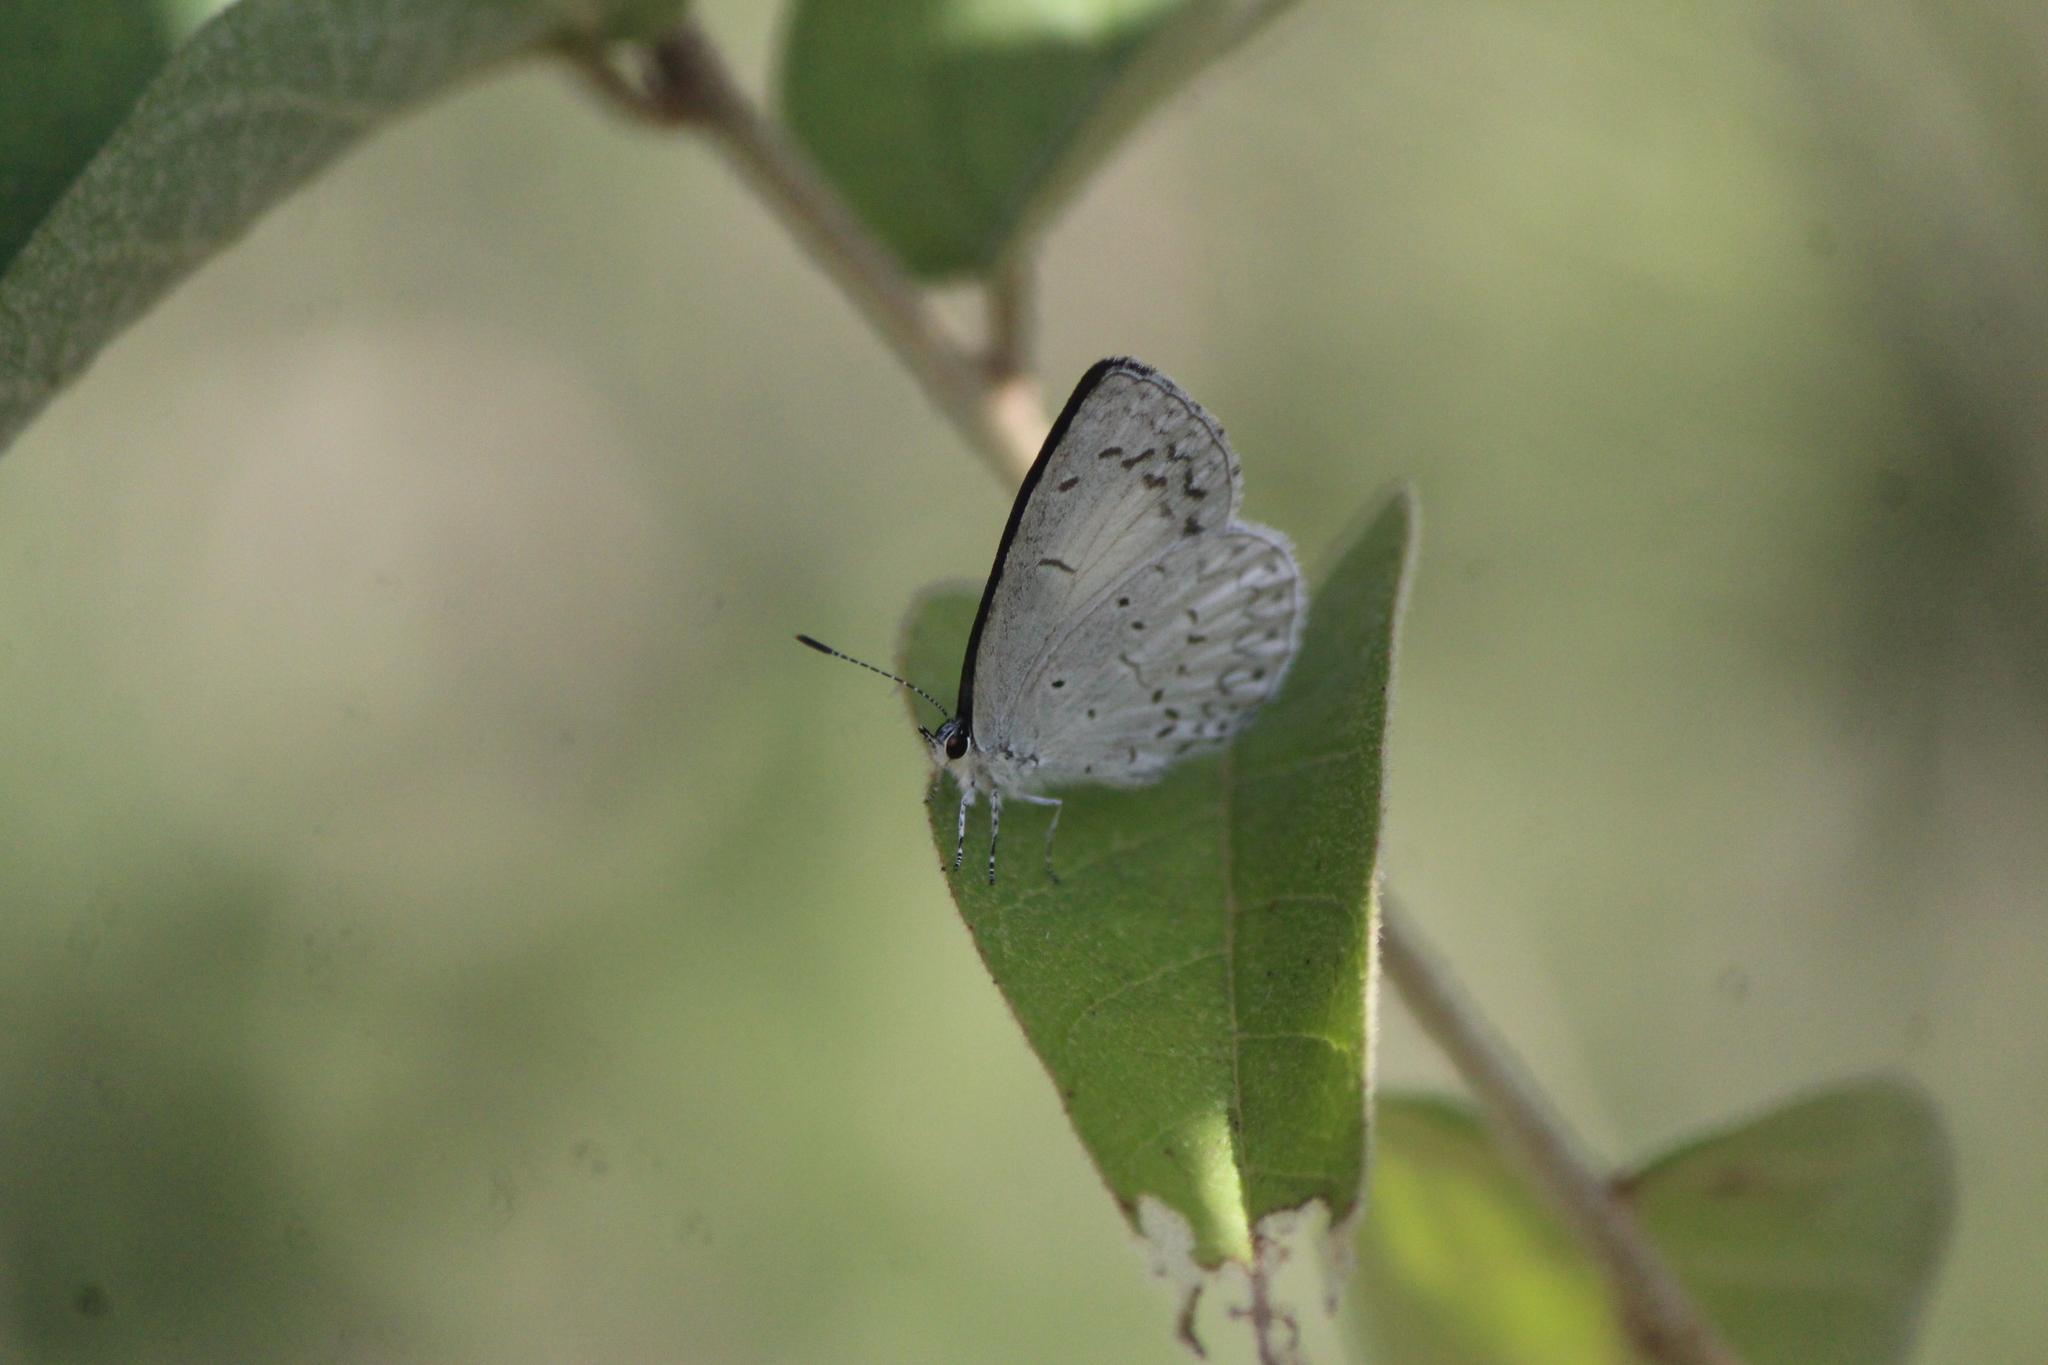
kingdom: Animalia
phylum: Arthropoda
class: Insecta
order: Lepidoptera
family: Lycaenidae
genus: Celastrina
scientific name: Celastrina ladon
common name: Spring azure
